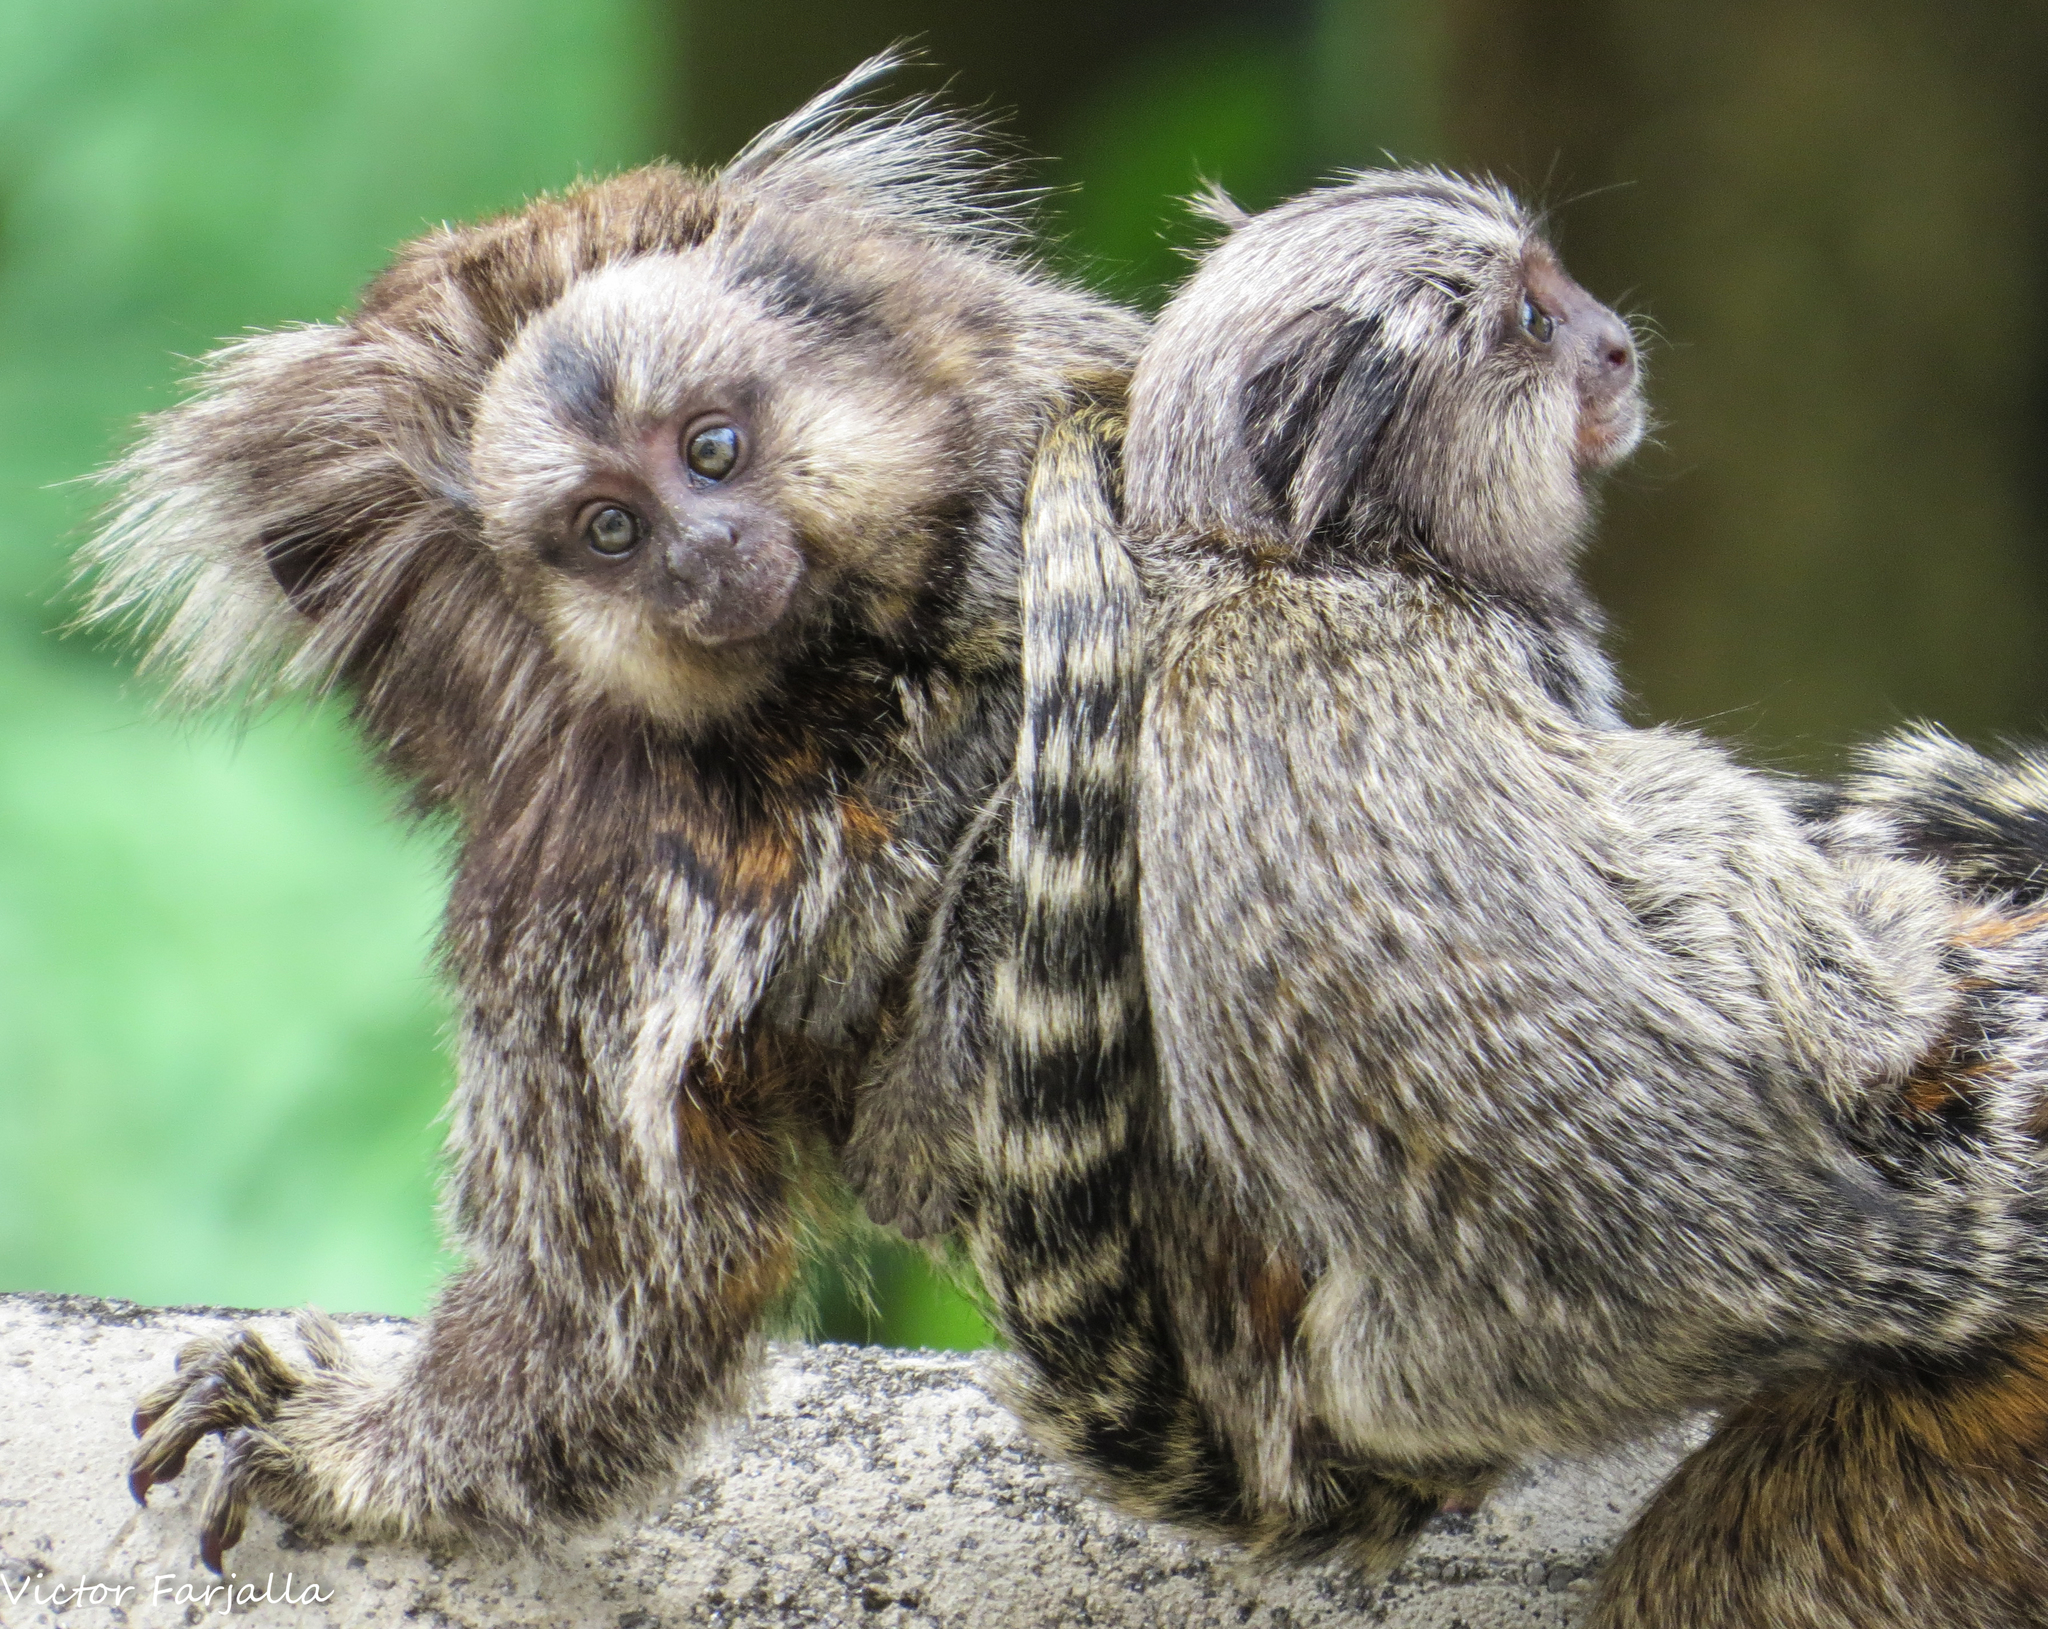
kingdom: Animalia
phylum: Chordata
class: Mammalia
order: Primates
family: Callitrichidae
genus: Callithrix
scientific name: Callithrix jacchus
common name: Common marmoset
